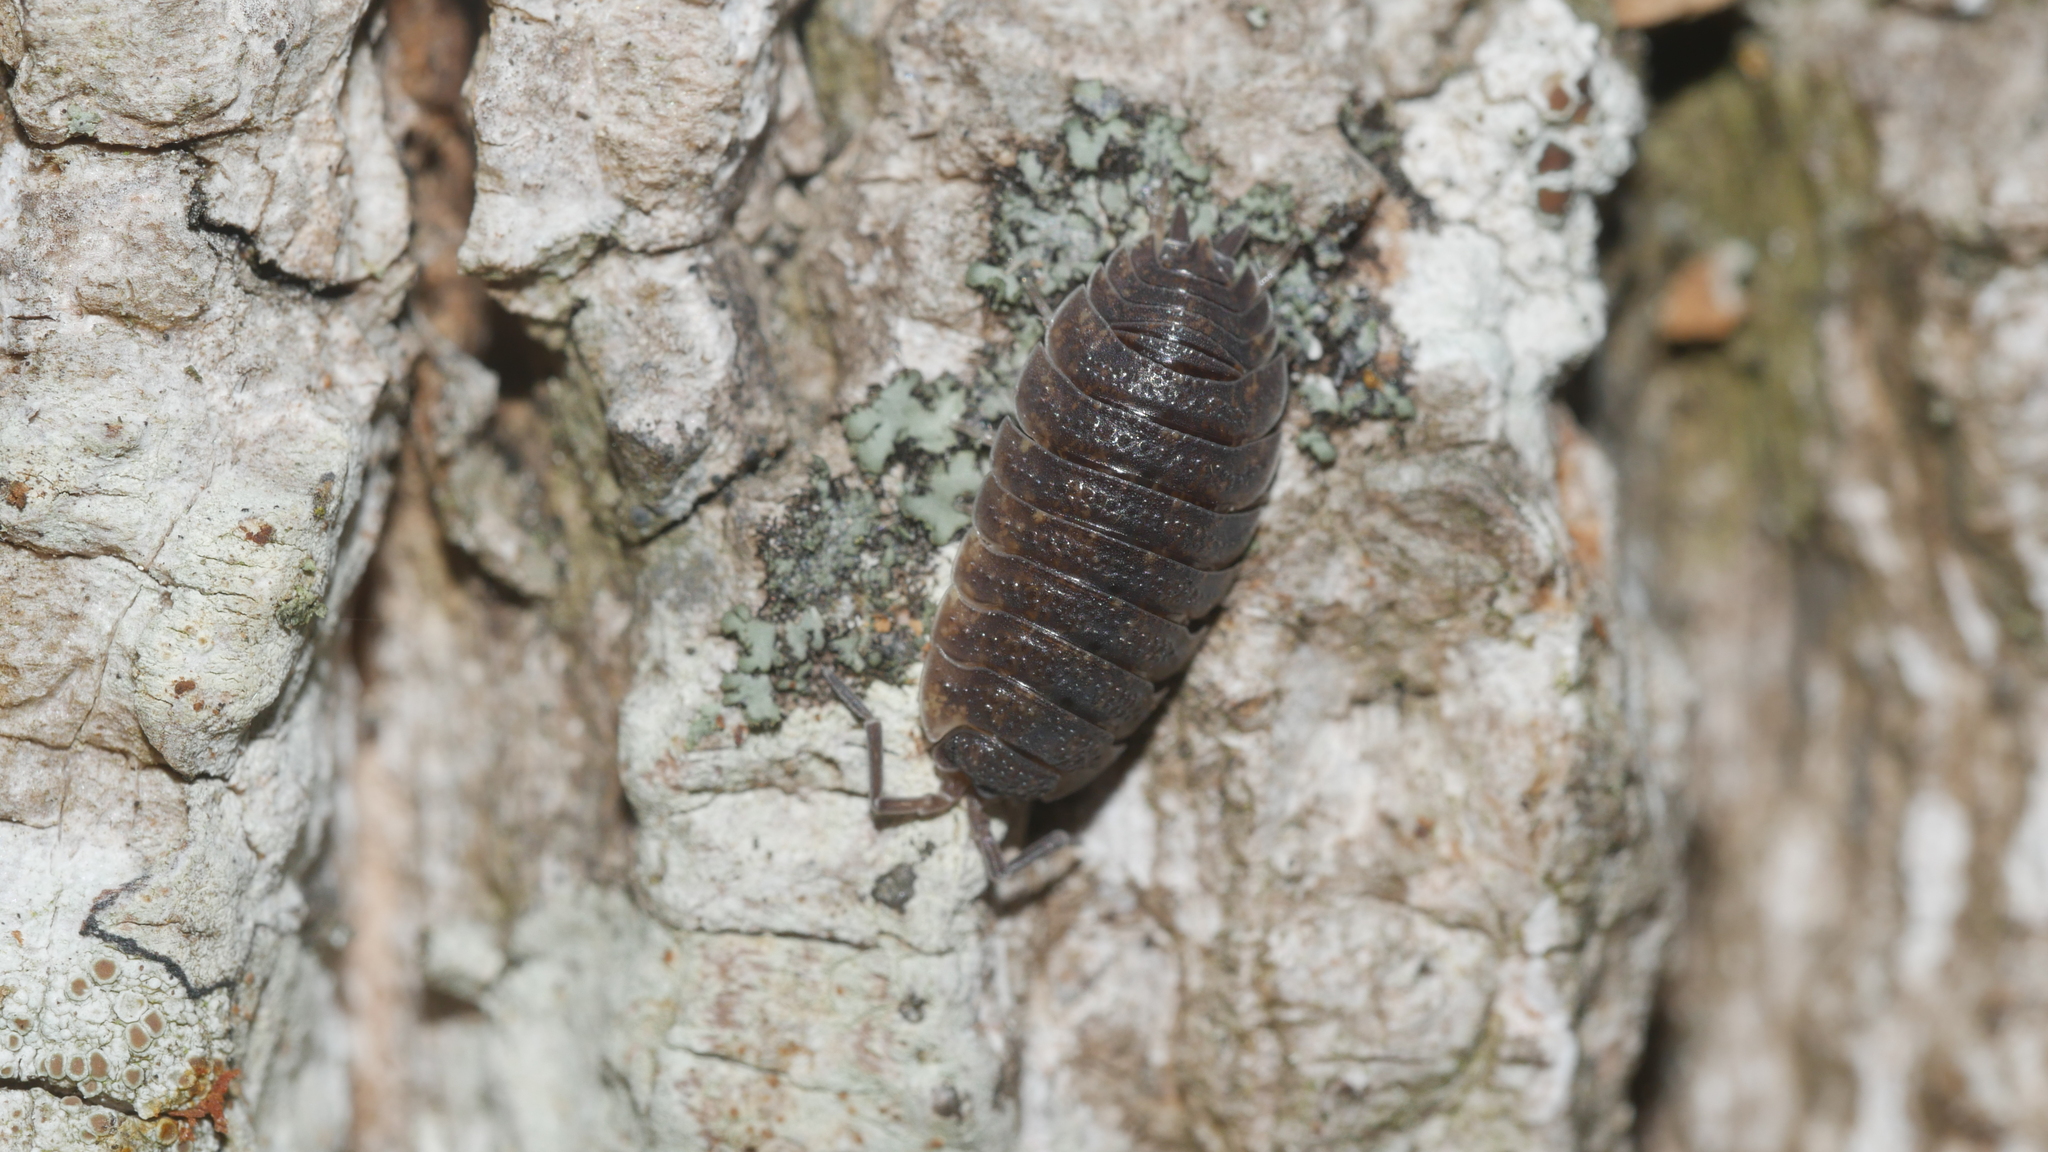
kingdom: Animalia
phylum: Arthropoda
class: Malacostraca
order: Isopoda
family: Porcellionidae
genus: Porcellio
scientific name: Porcellio scaber
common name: Common rough woodlouse
